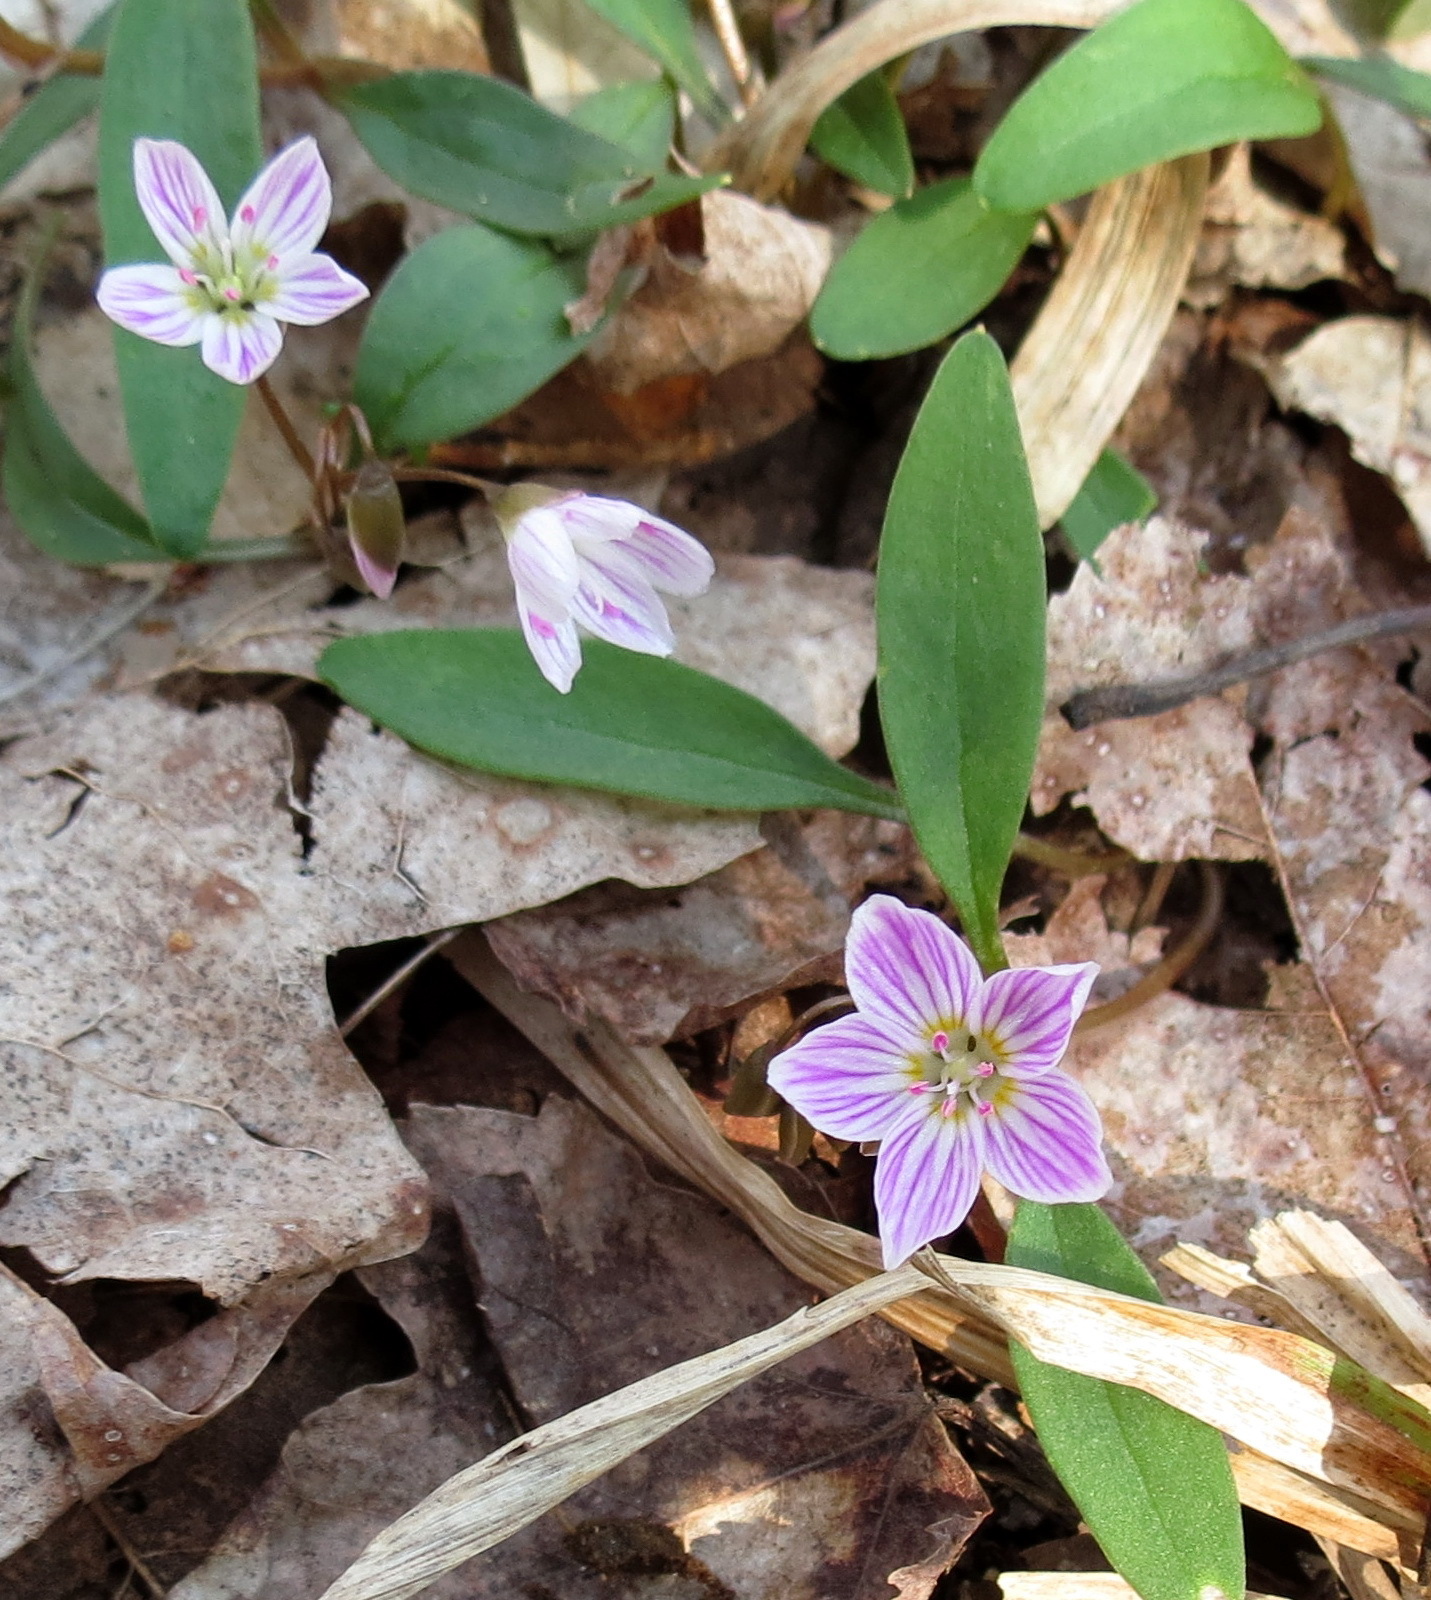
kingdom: Plantae
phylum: Tracheophyta
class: Magnoliopsida
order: Caryophyllales
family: Montiaceae
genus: Claytonia
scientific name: Claytonia caroliniana
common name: Carolina spring beauty
